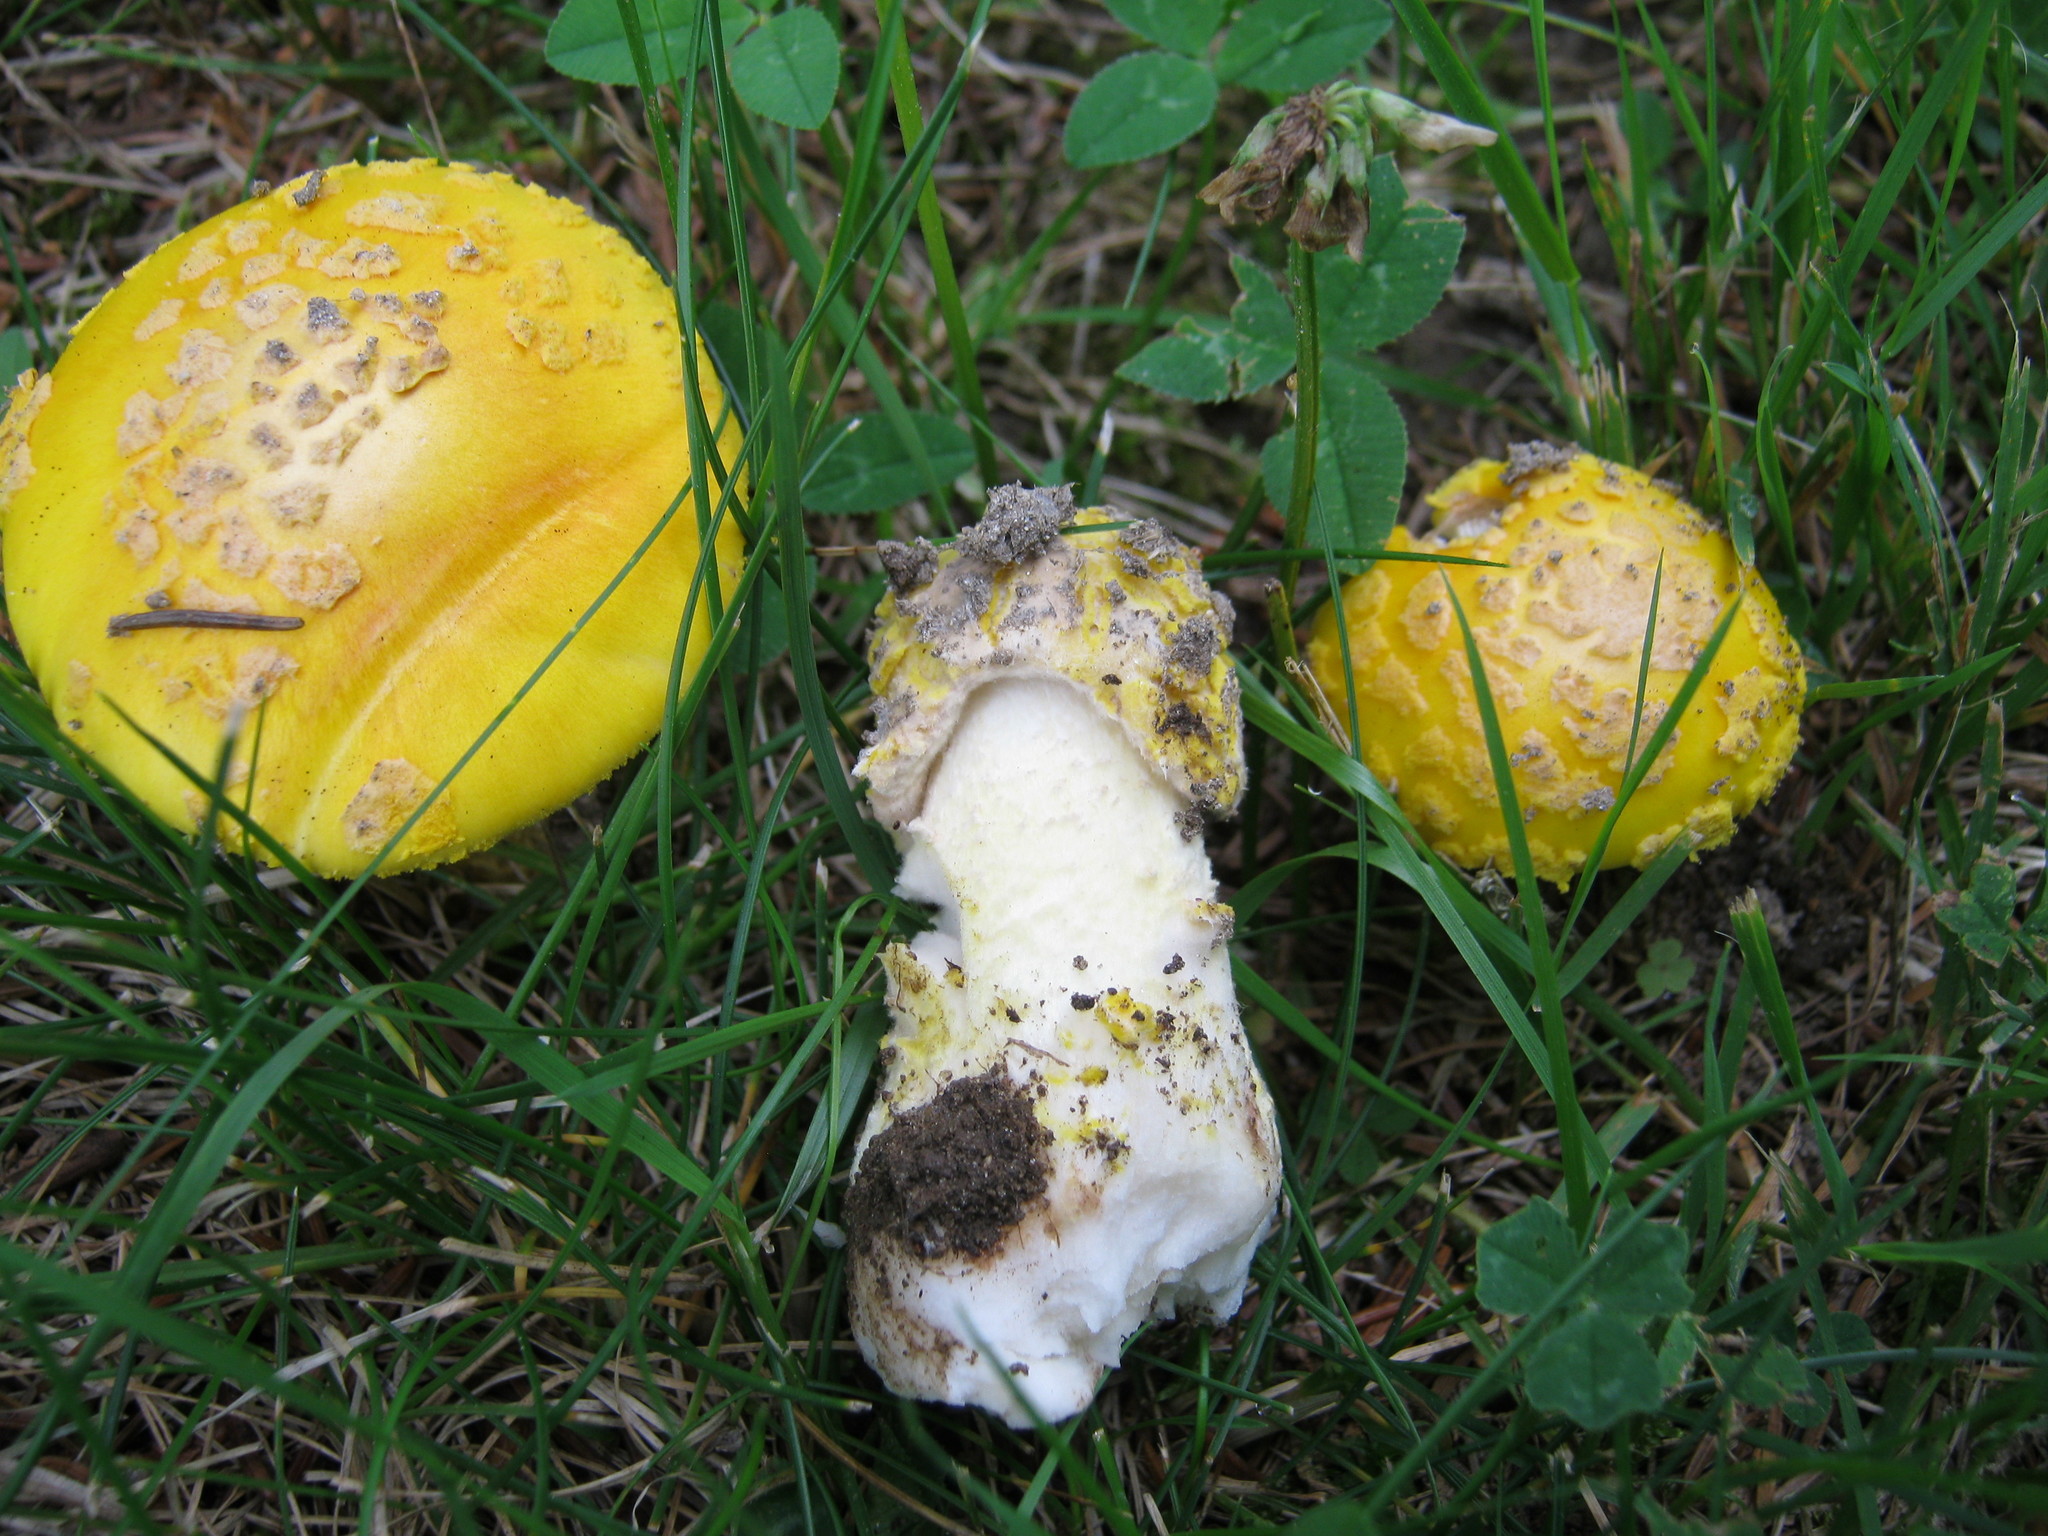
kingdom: Fungi
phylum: Basidiomycota
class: Agaricomycetes
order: Agaricales
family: Amanitaceae
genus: Amanita
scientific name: Amanita flavorubens
